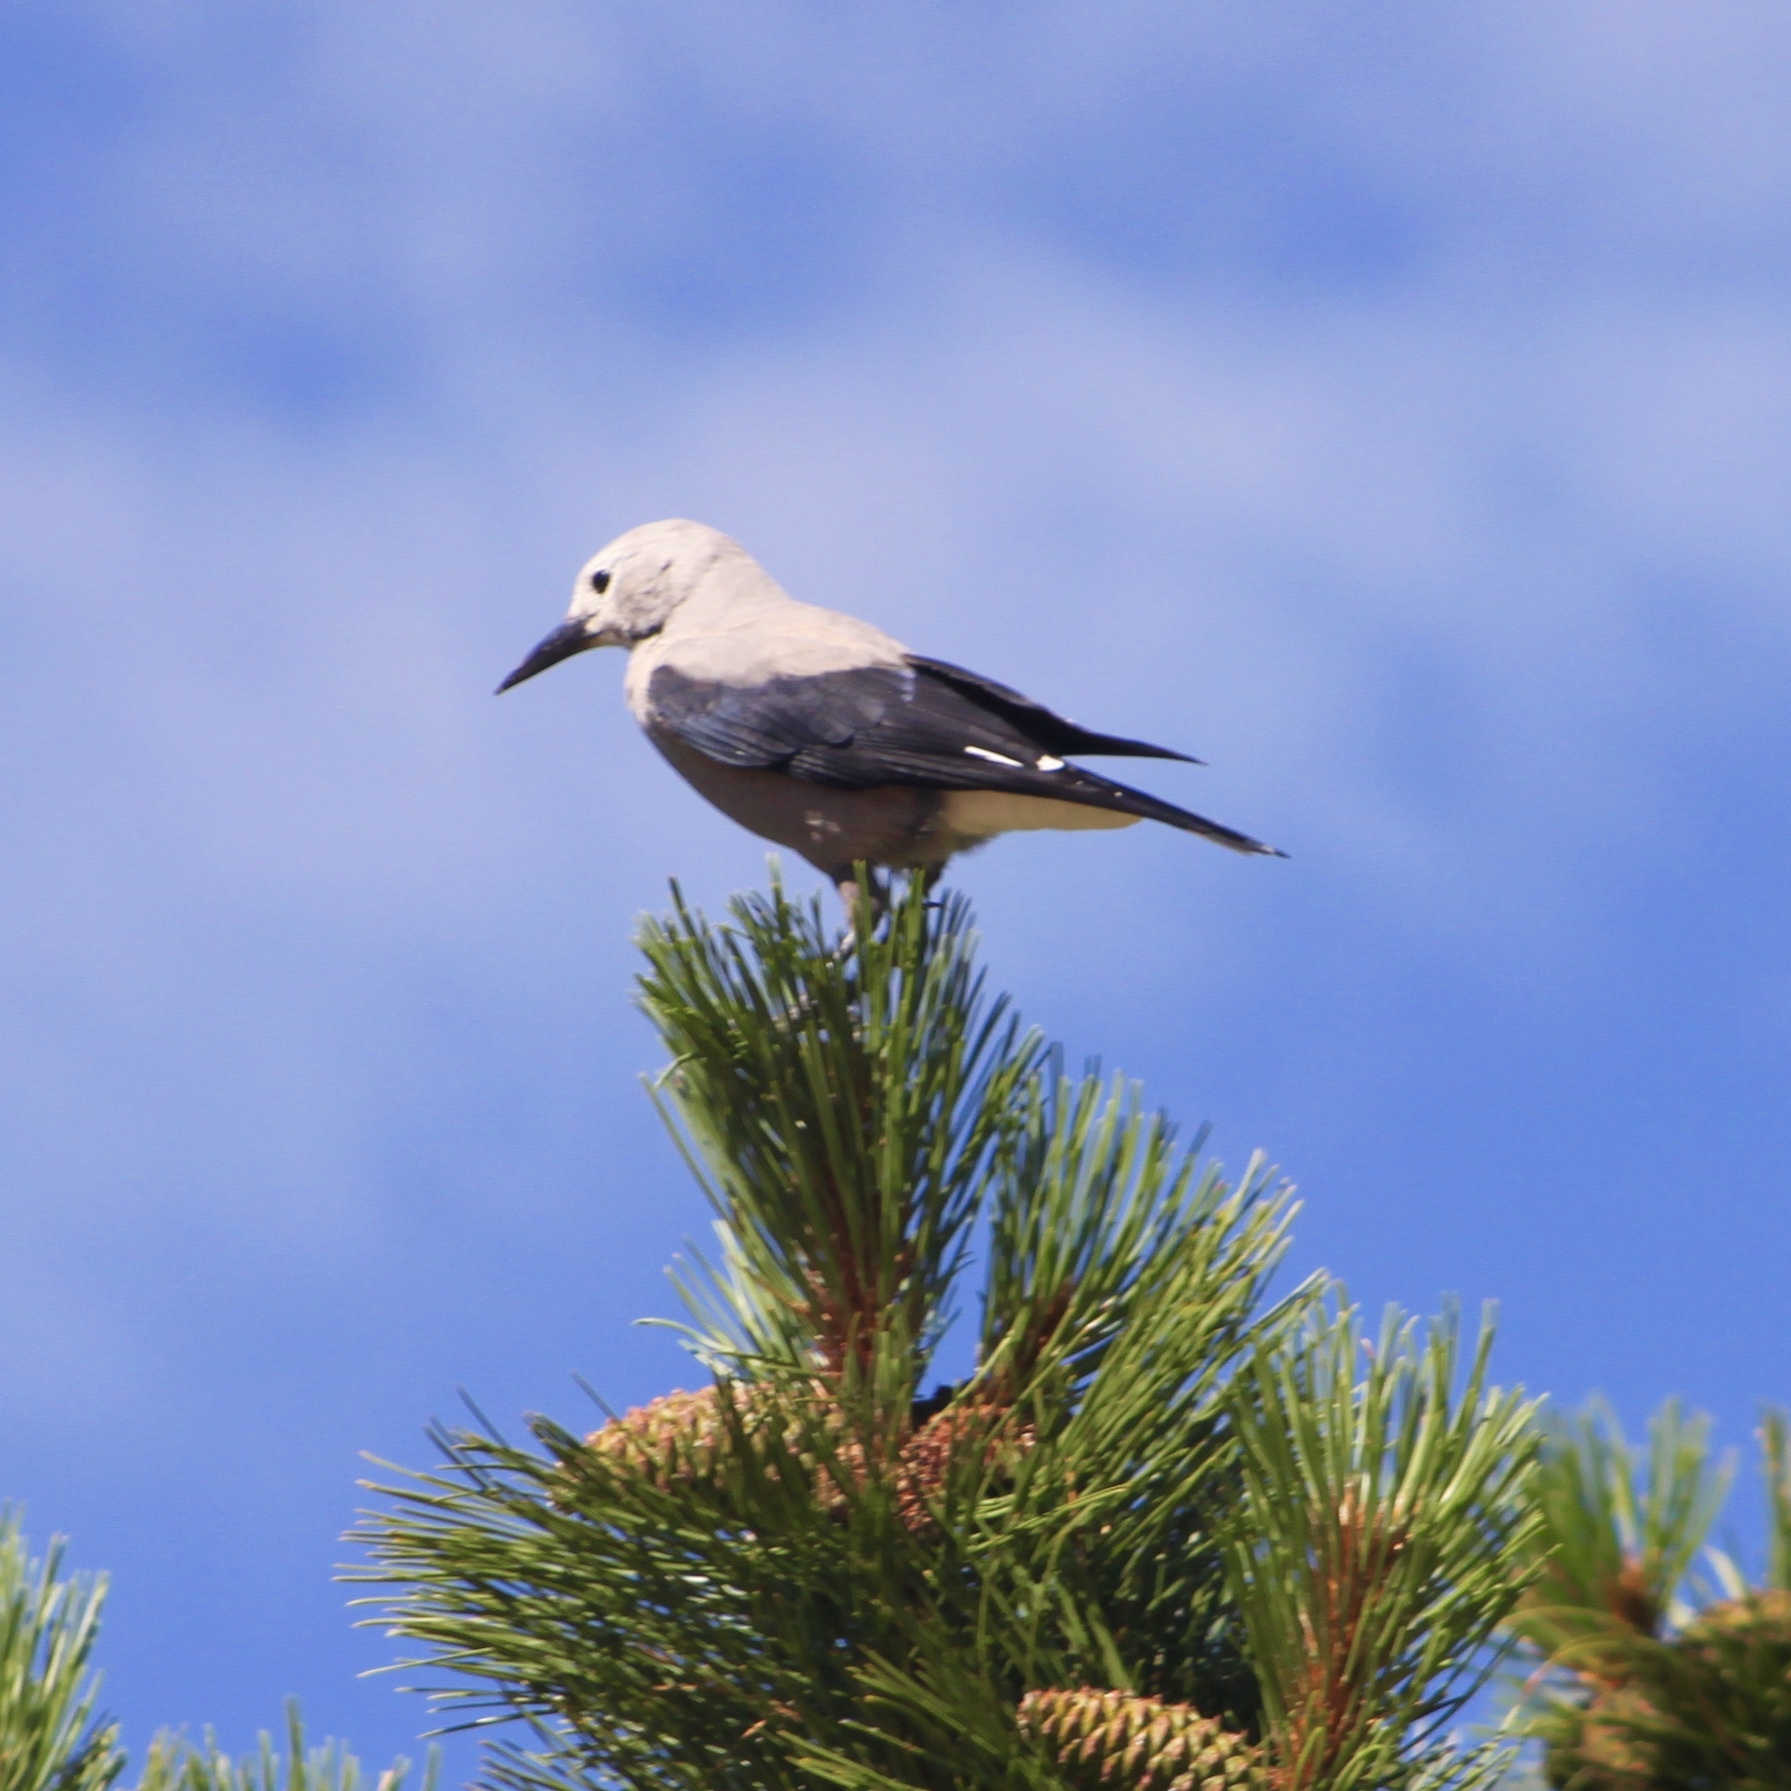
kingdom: Animalia
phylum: Chordata
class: Aves
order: Passeriformes
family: Corvidae
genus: Nucifraga
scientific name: Nucifraga columbiana
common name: Clark's nutcracker
